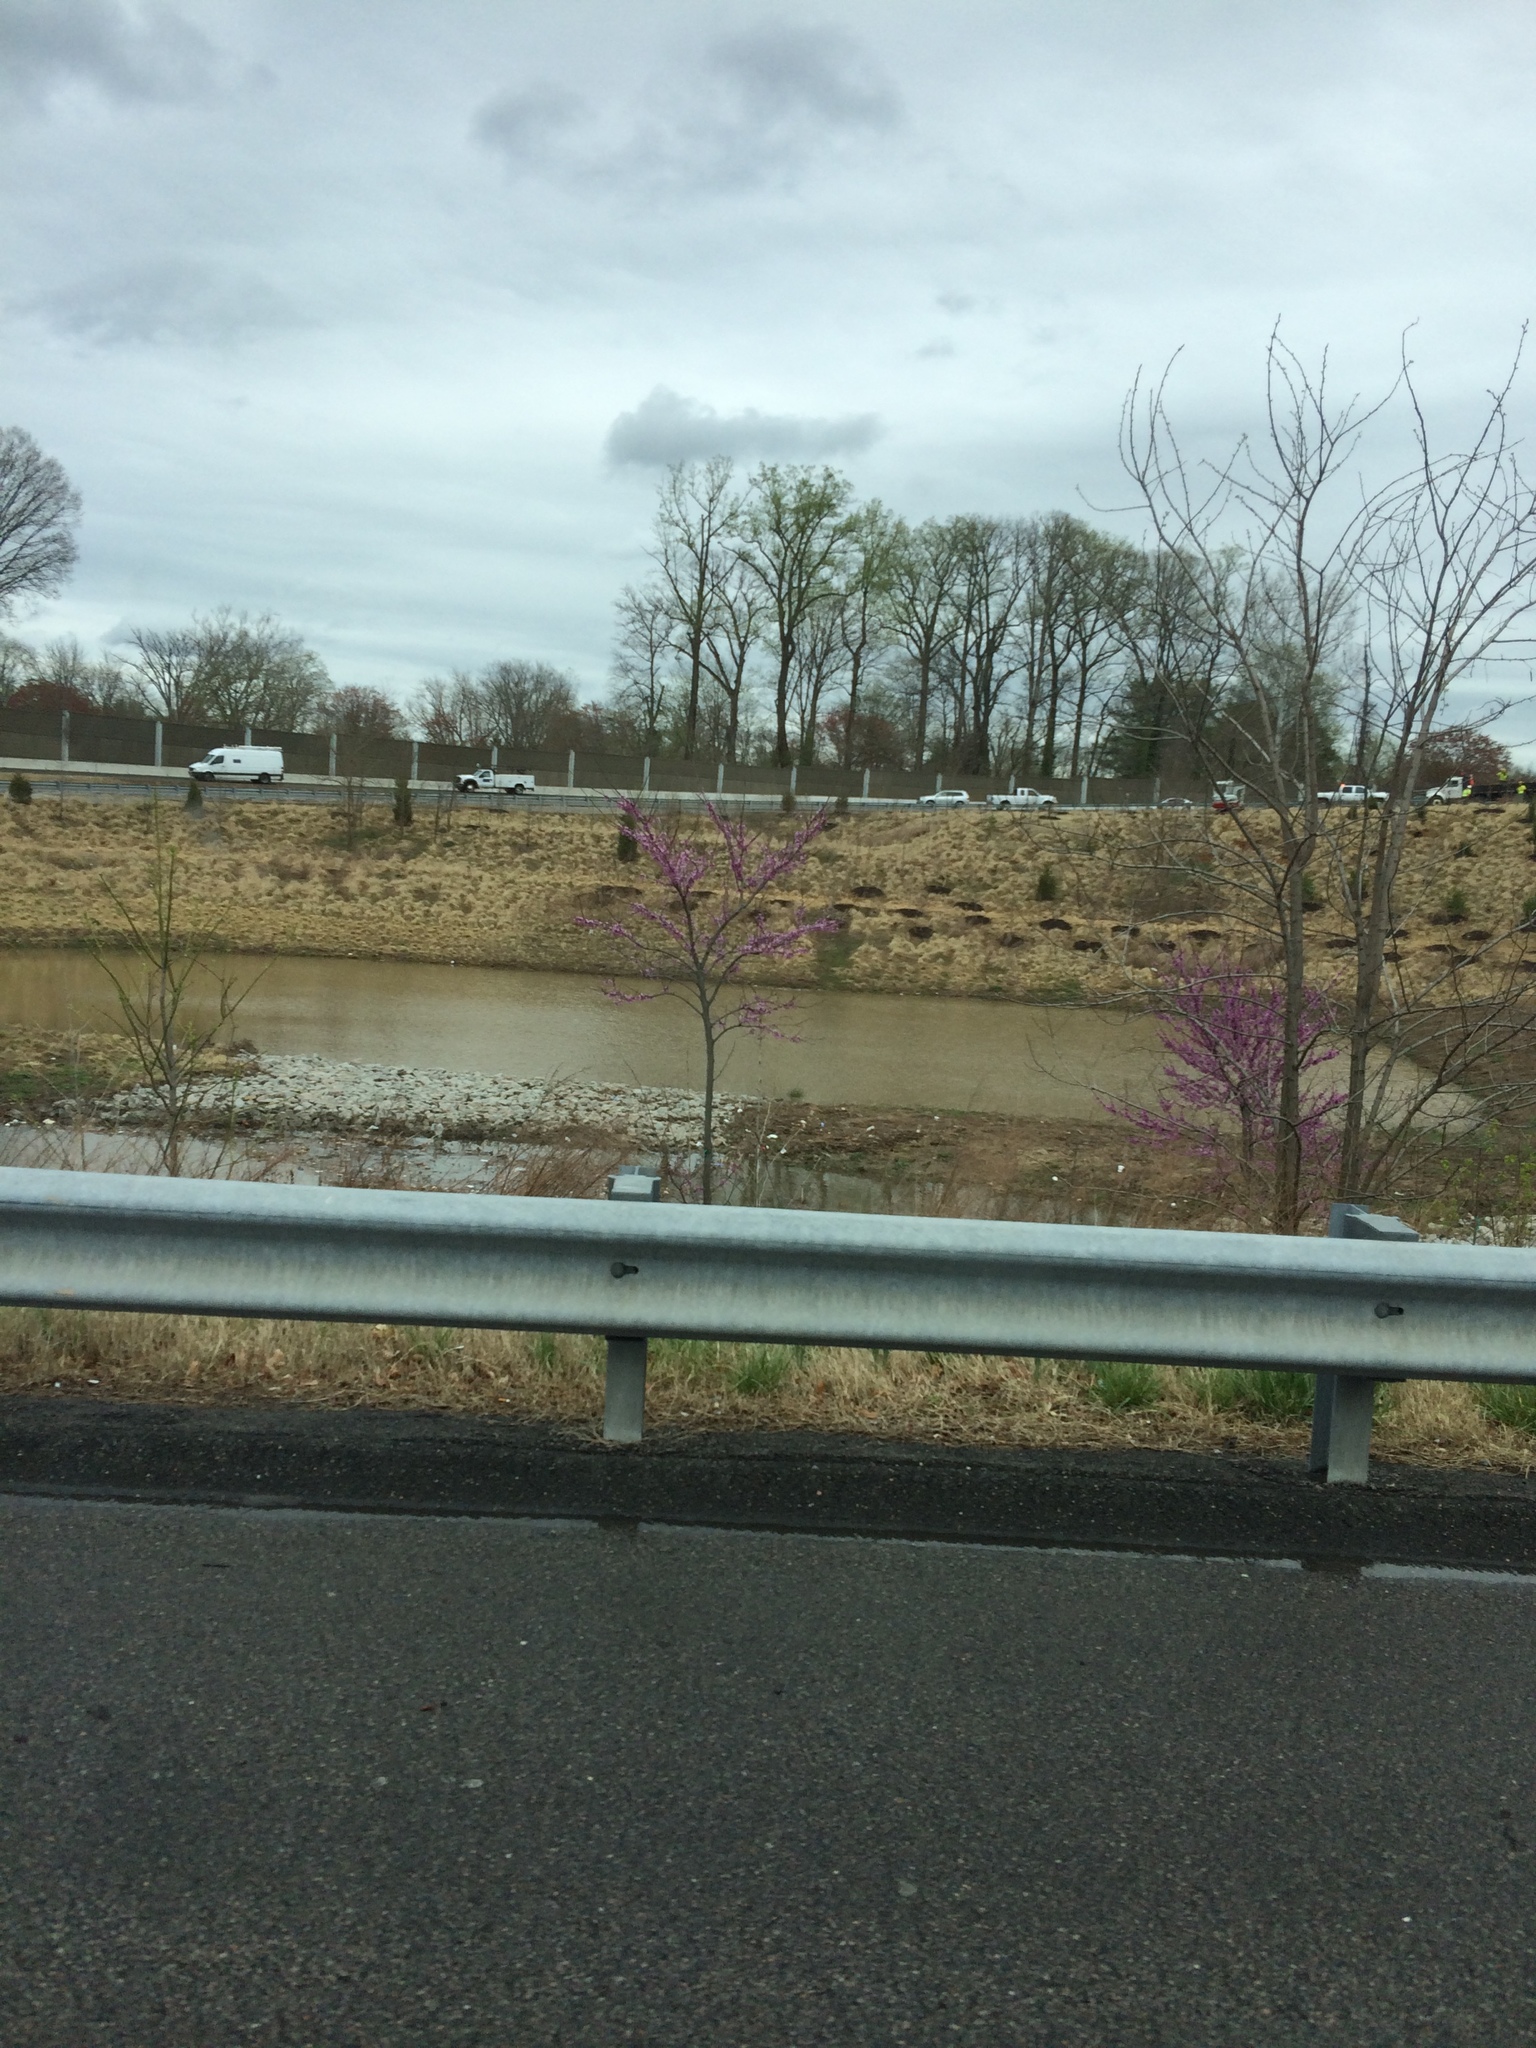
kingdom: Plantae
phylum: Tracheophyta
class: Magnoliopsida
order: Fabales
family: Fabaceae
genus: Cercis
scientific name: Cercis canadensis
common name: Eastern redbud
